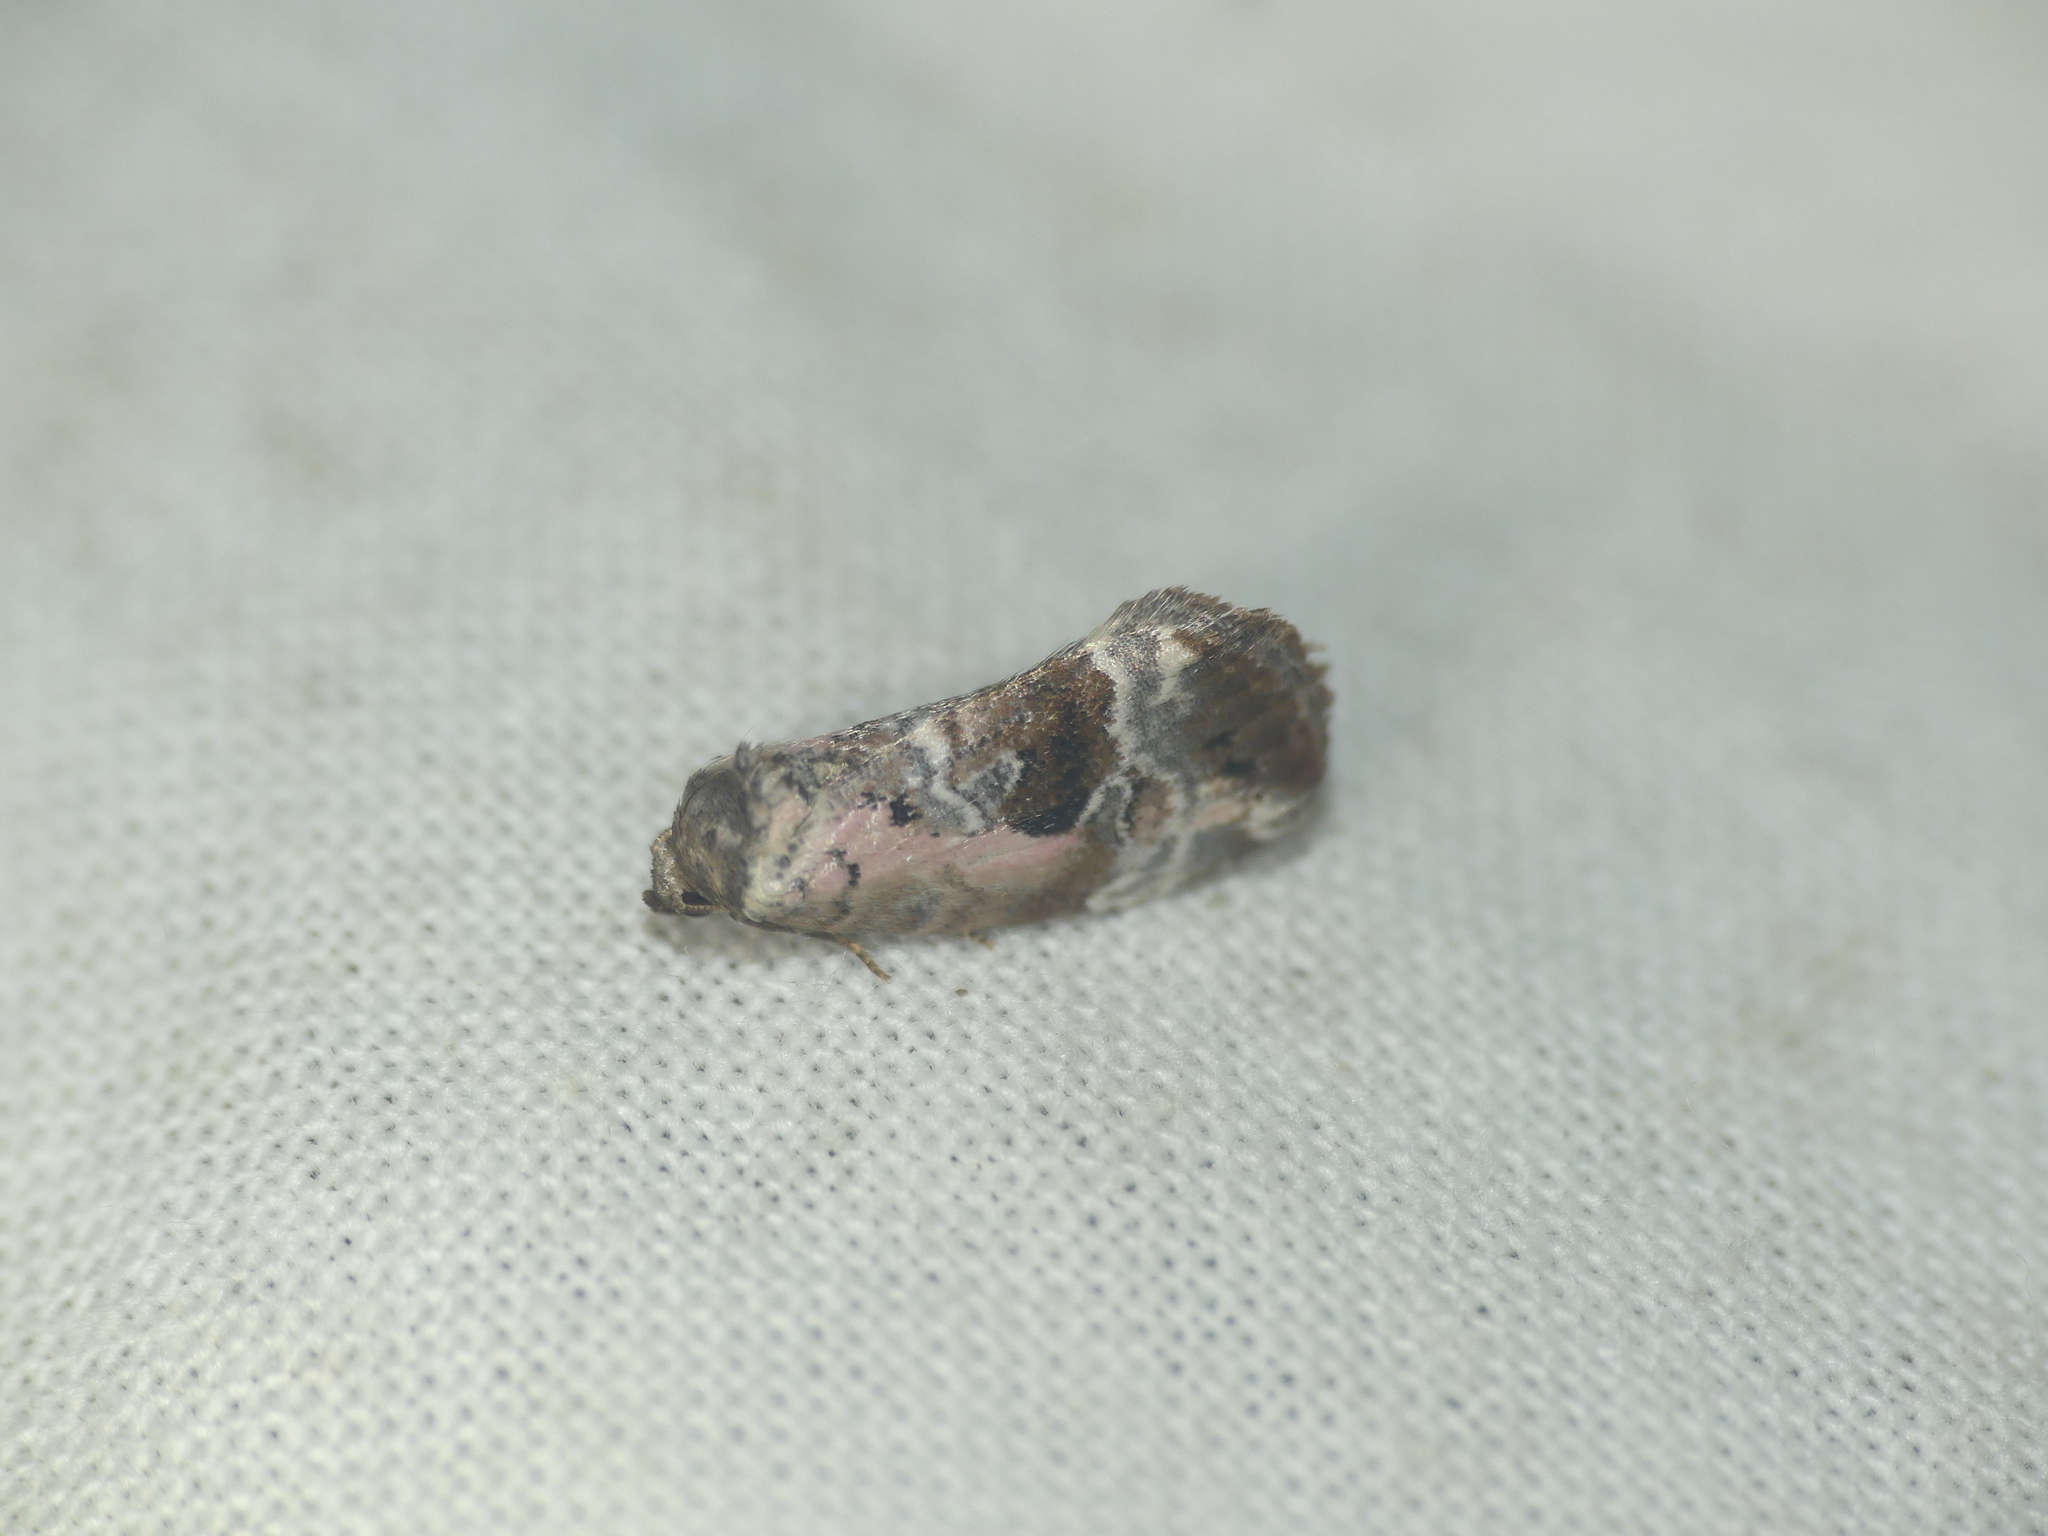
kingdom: Animalia
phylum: Arthropoda
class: Insecta
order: Lepidoptera
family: Noctuidae
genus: Elaphria
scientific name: Elaphria venustula
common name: Rosy marbled
